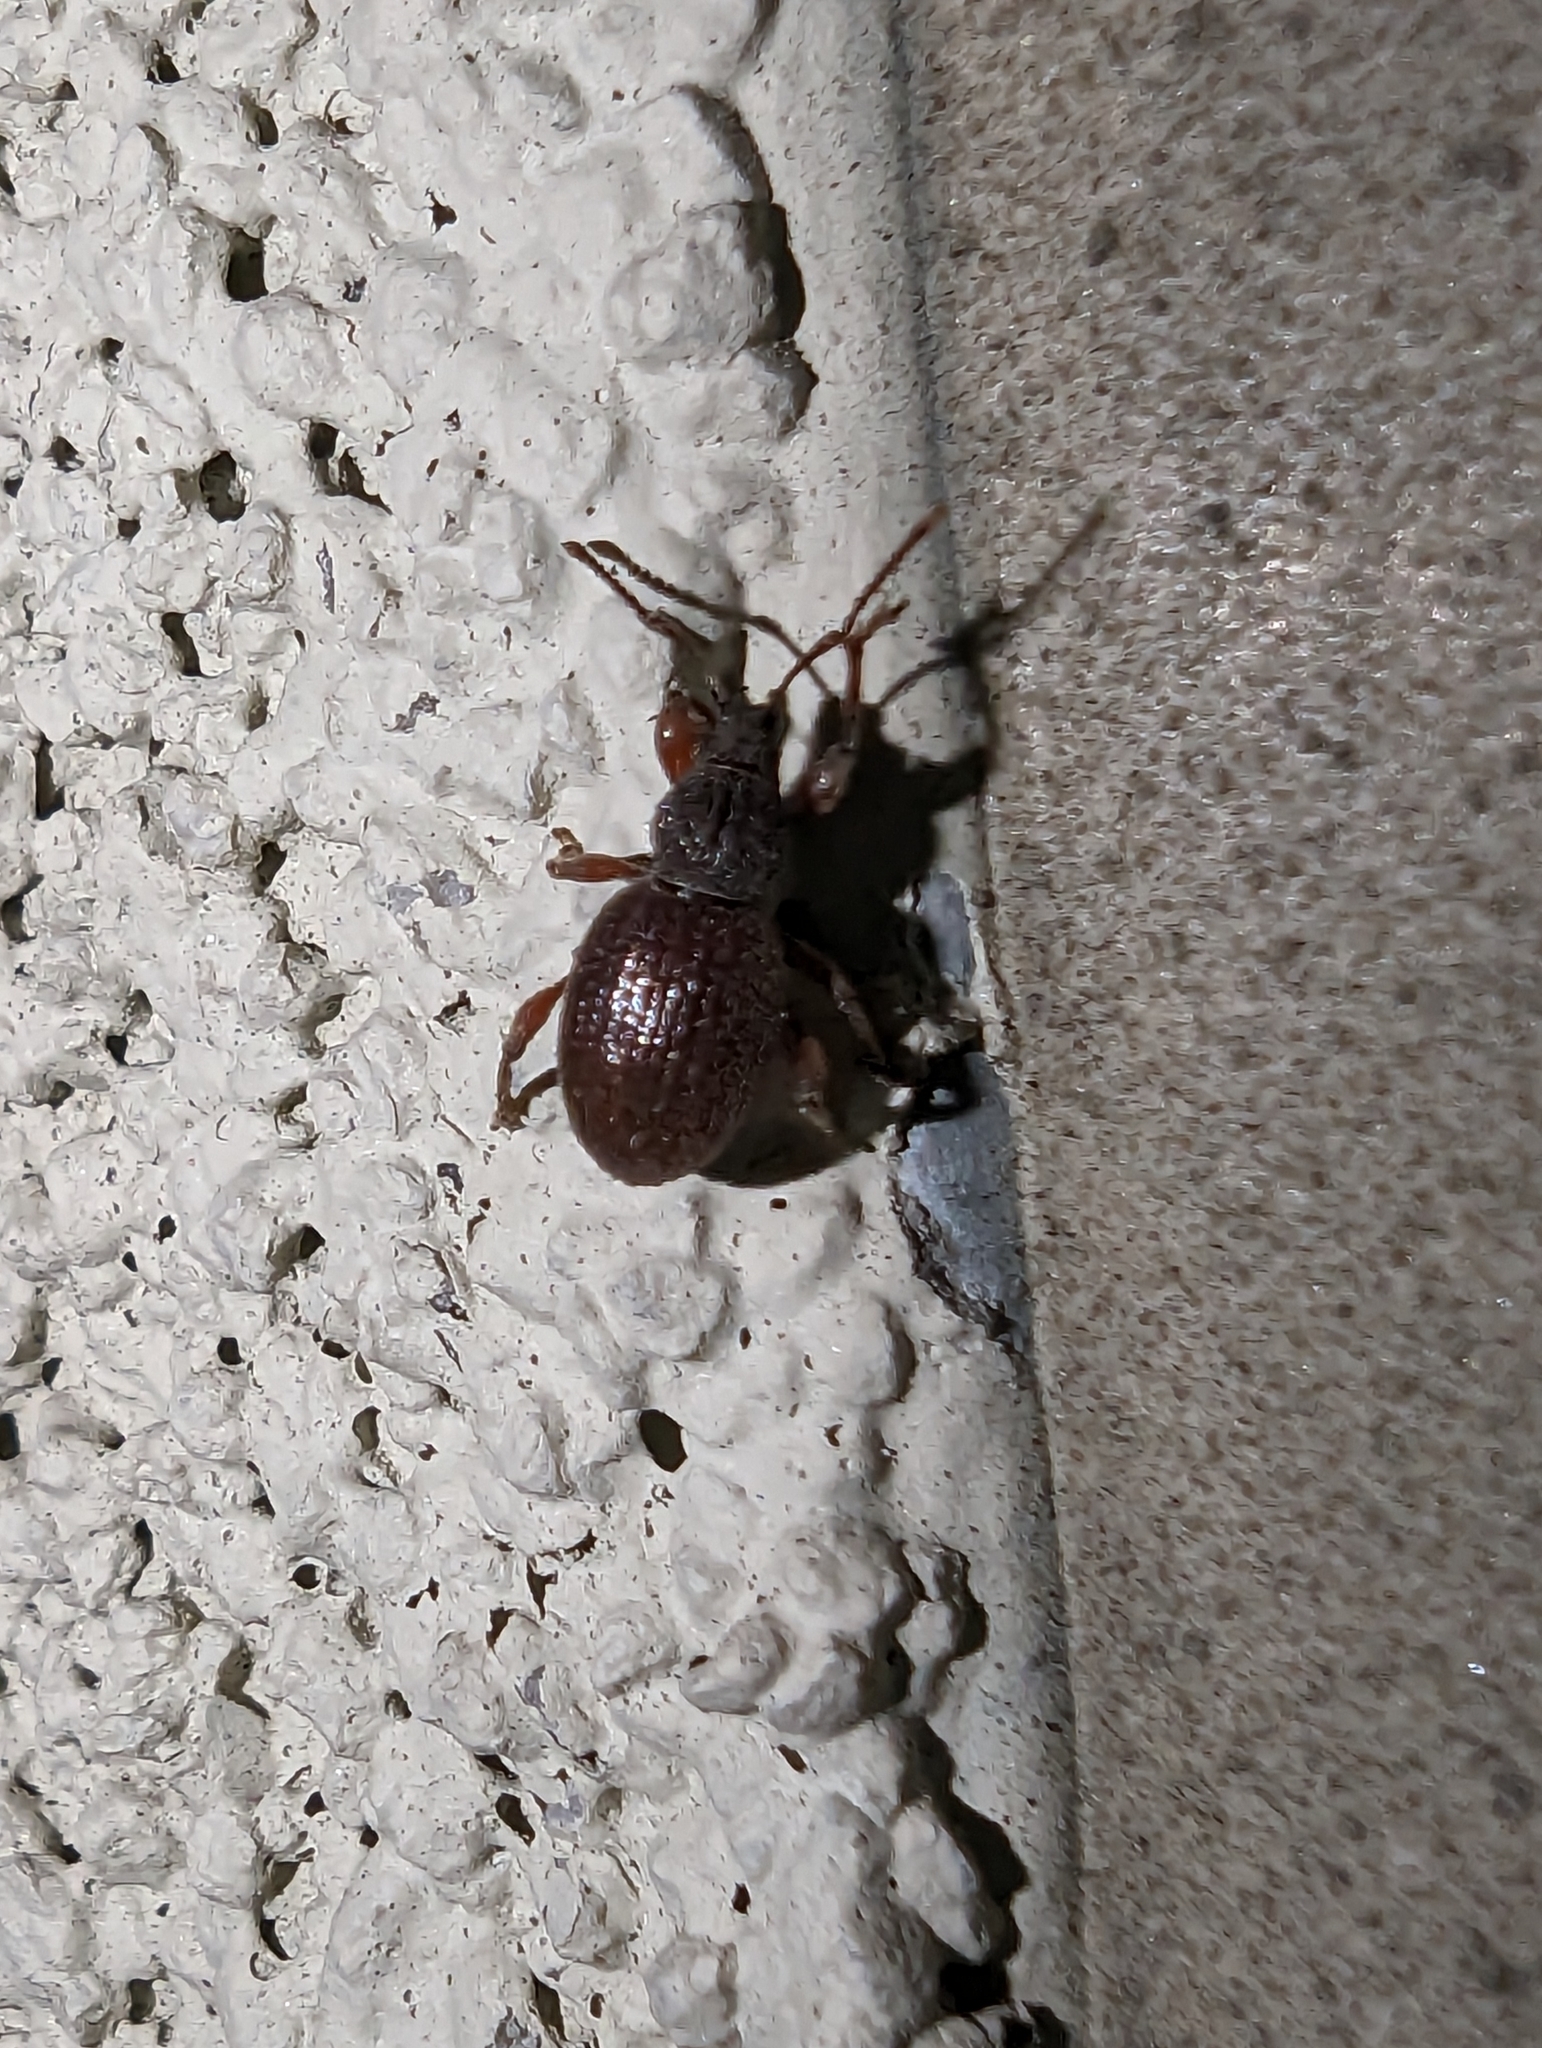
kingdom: Animalia
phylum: Arthropoda
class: Insecta
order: Coleoptera
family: Curculionidae
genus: Otiorhynchus
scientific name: Otiorhynchus ovatus
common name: Strawberry root weevil
